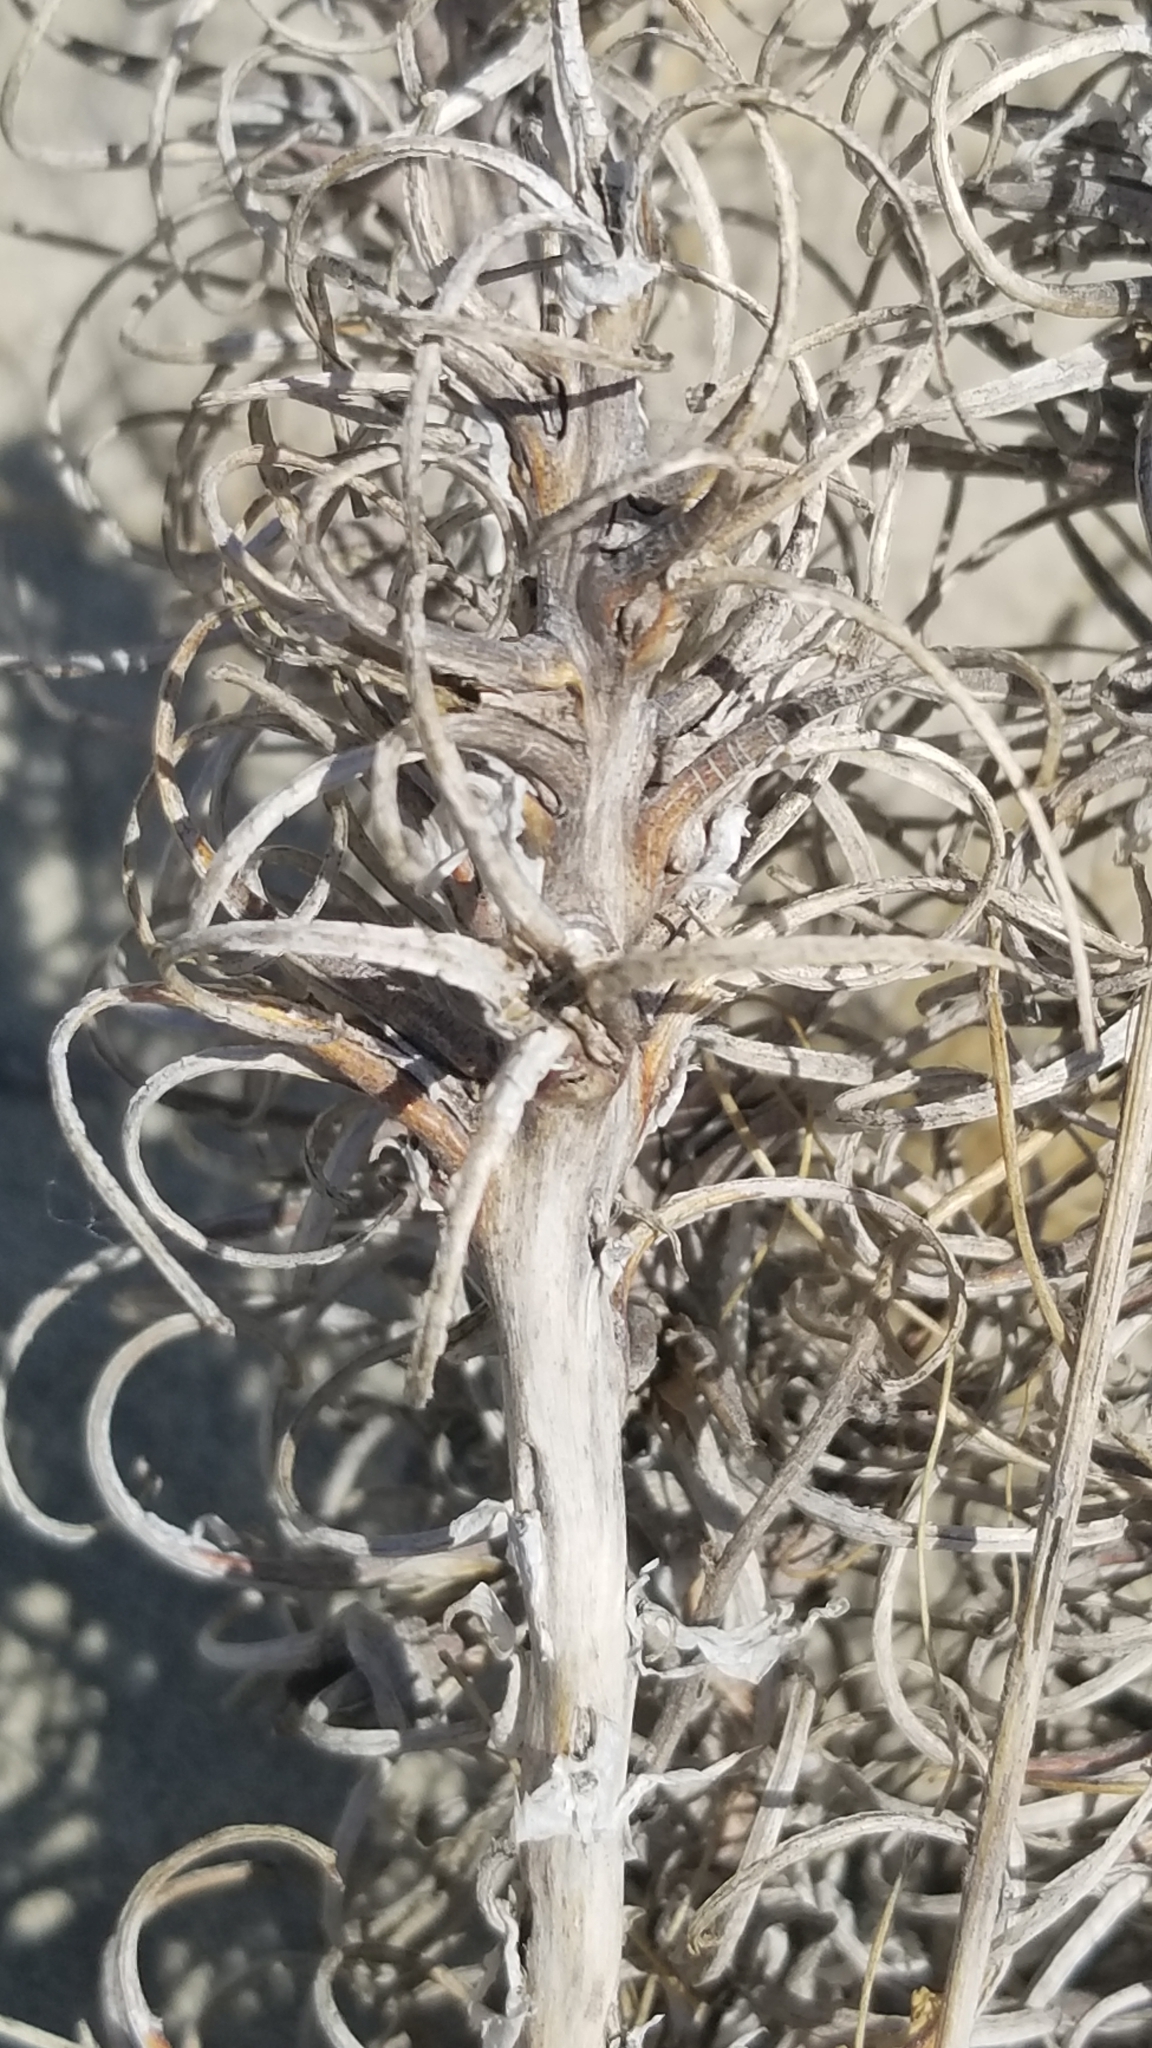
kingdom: Plantae
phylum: Tracheophyta
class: Magnoliopsida
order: Myrtales
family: Onagraceae
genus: Oenothera
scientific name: Oenothera deltoides
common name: Basket evening-primrose
